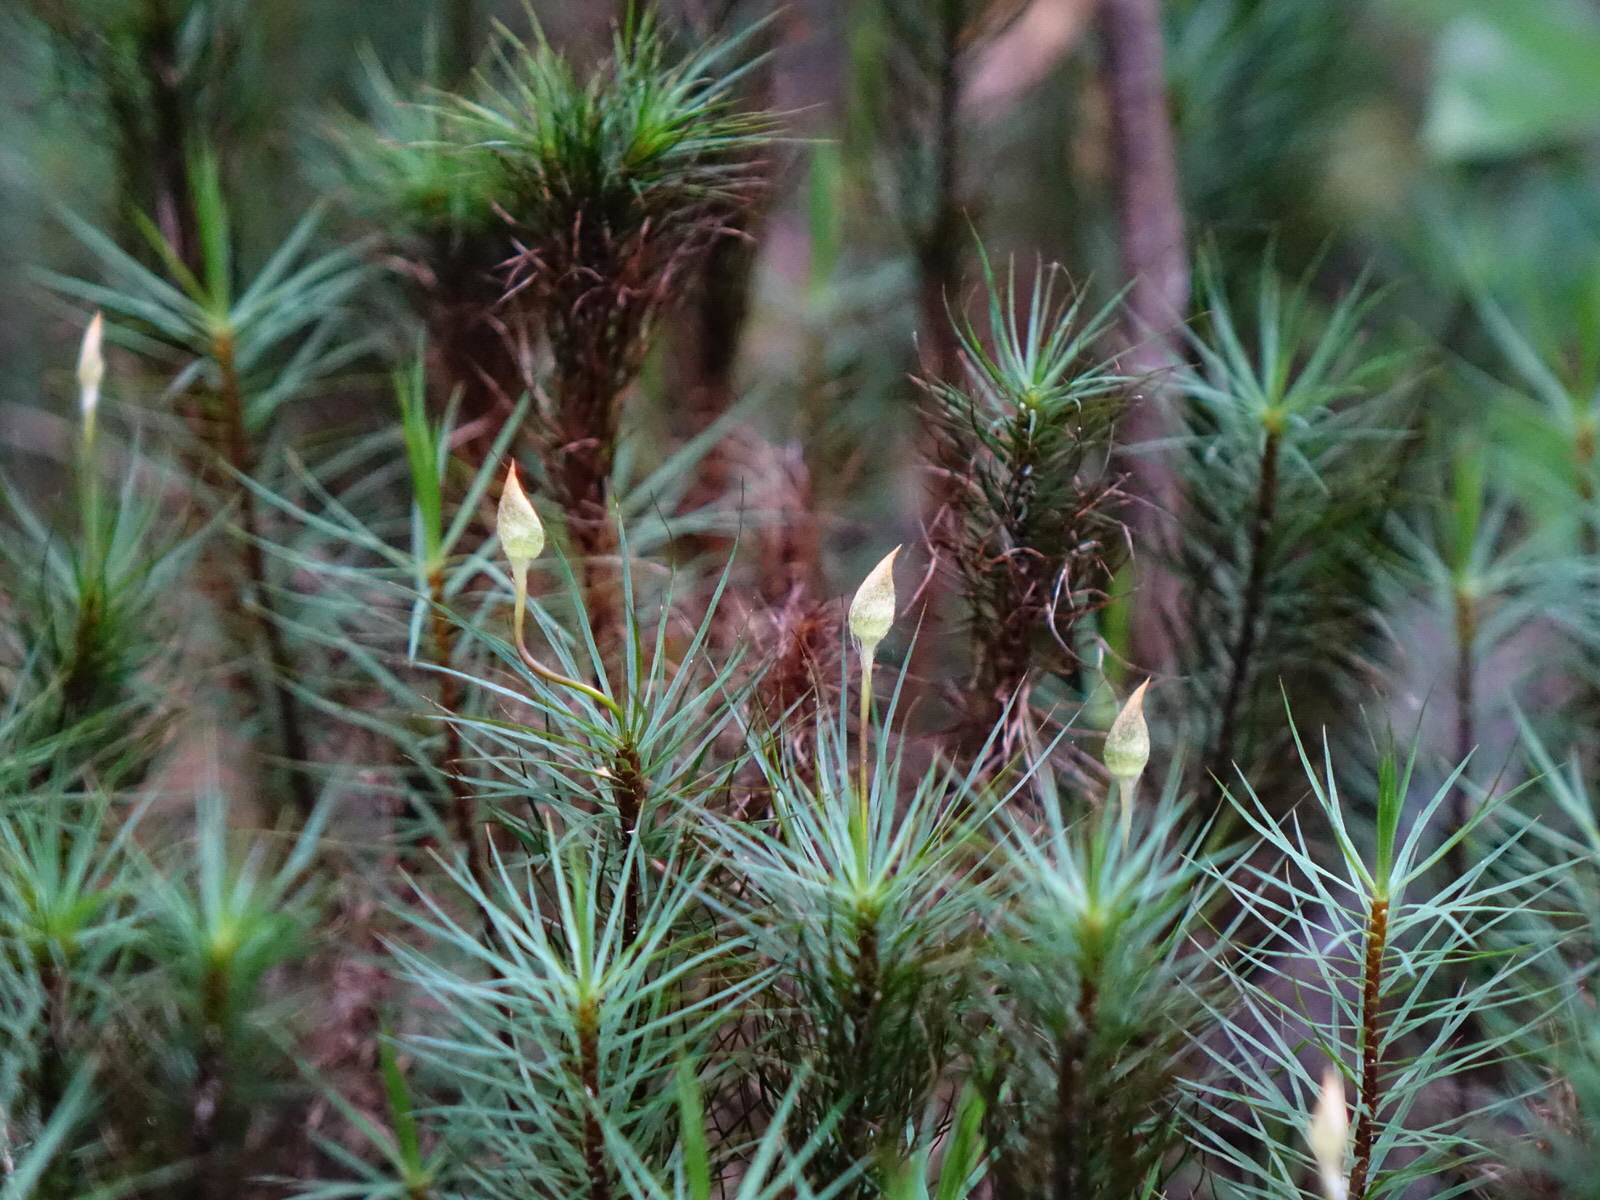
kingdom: Plantae
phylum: Bryophyta
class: Polytrichopsida
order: Polytrichales
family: Polytrichaceae
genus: Dawsonia
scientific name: Dawsonia superba
